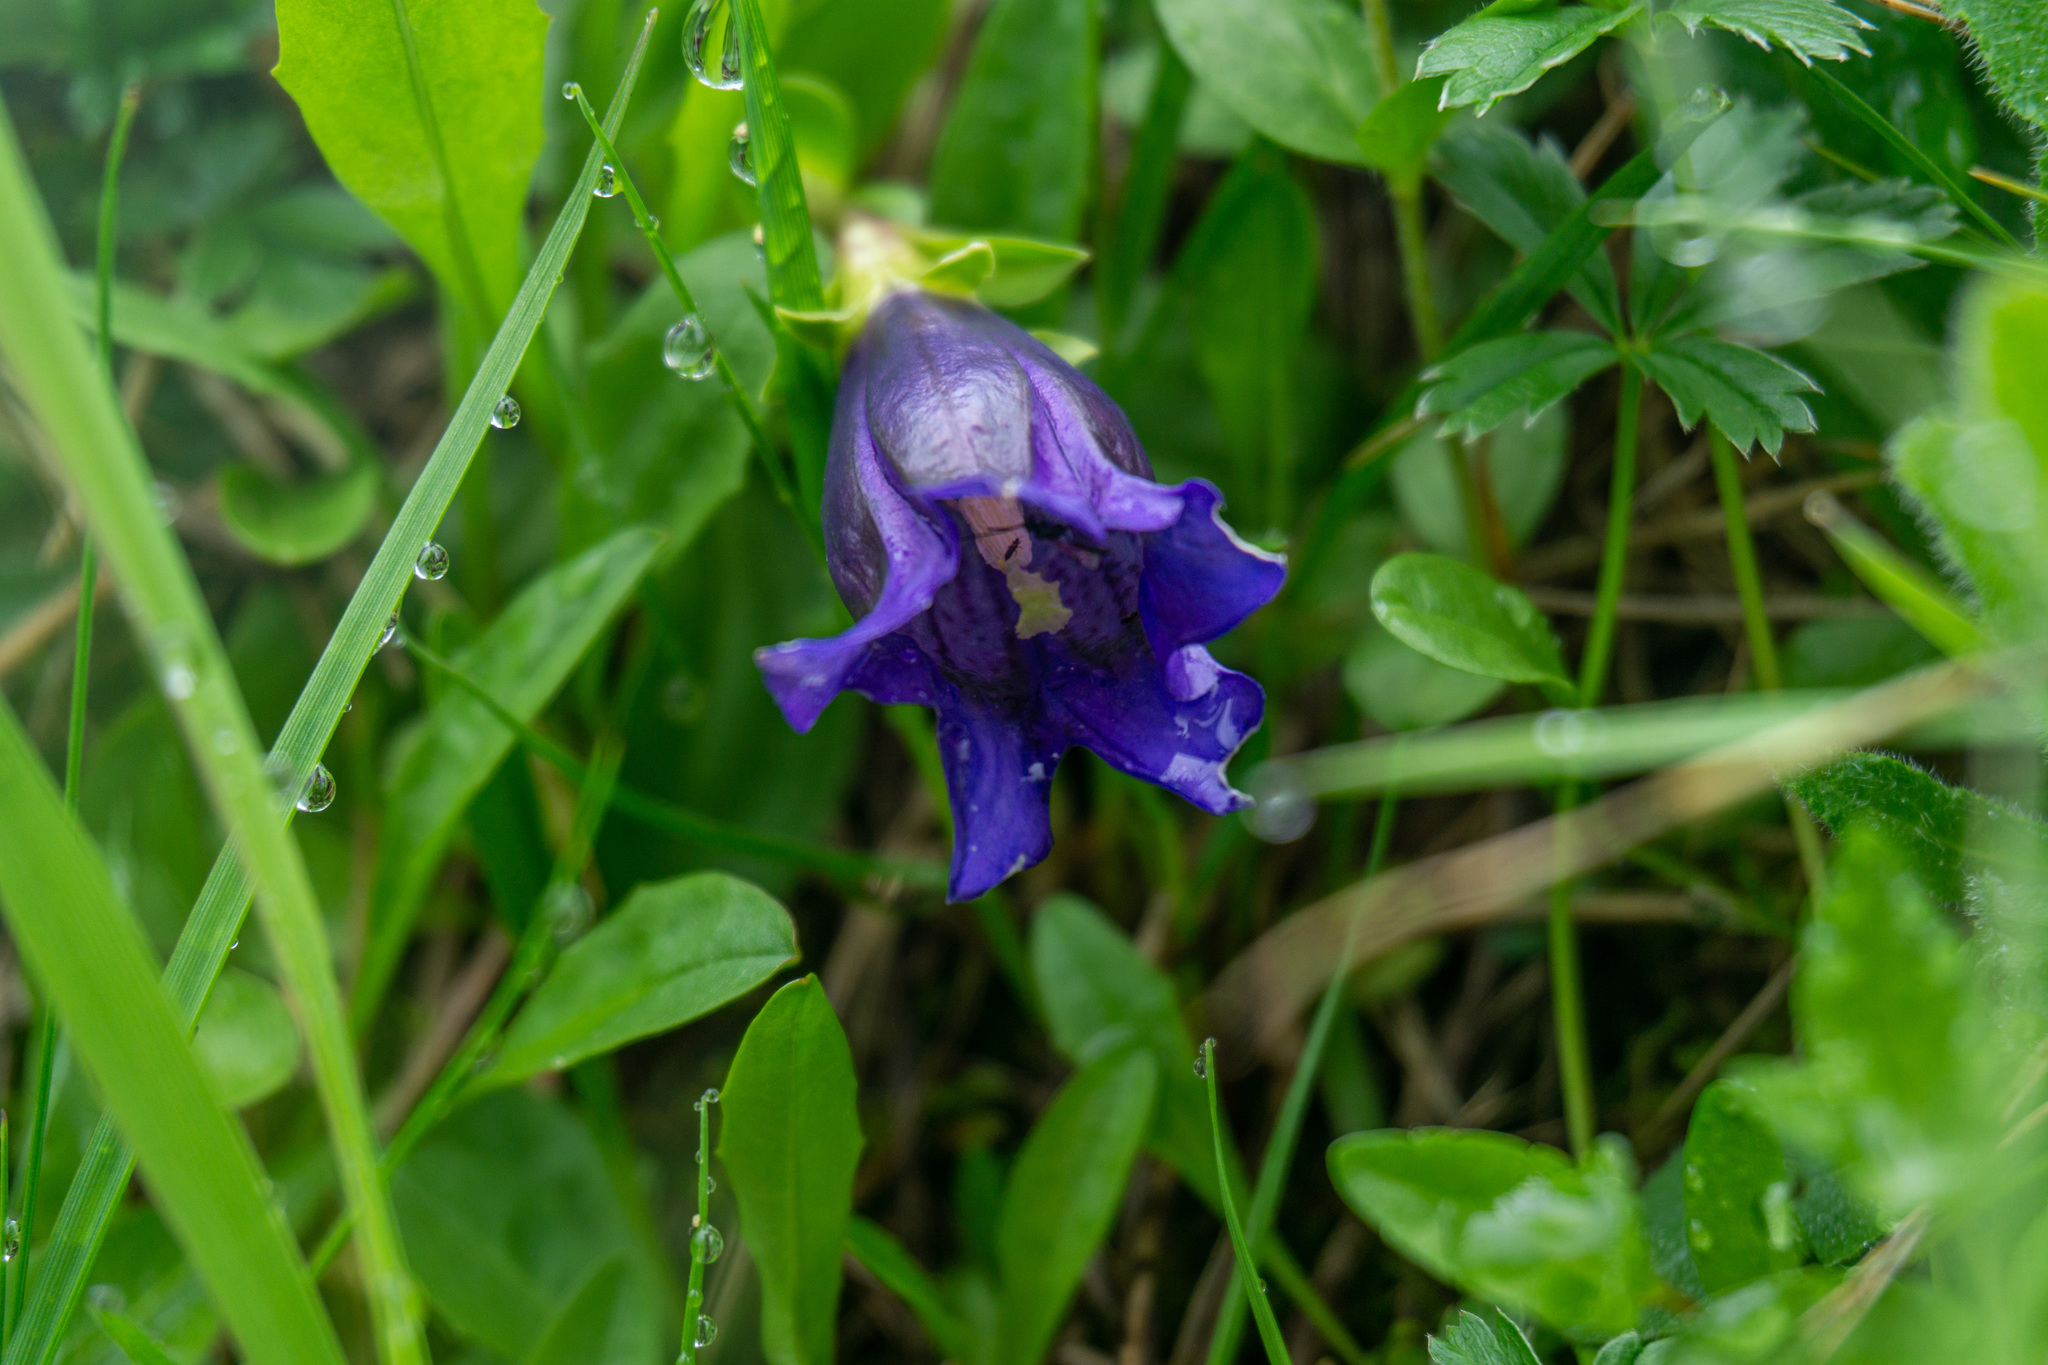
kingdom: Plantae
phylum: Tracheophyta
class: Magnoliopsida
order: Gentianales
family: Gentianaceae
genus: Gentiana
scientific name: Gentiana acaulis
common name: Trumpet gentian
